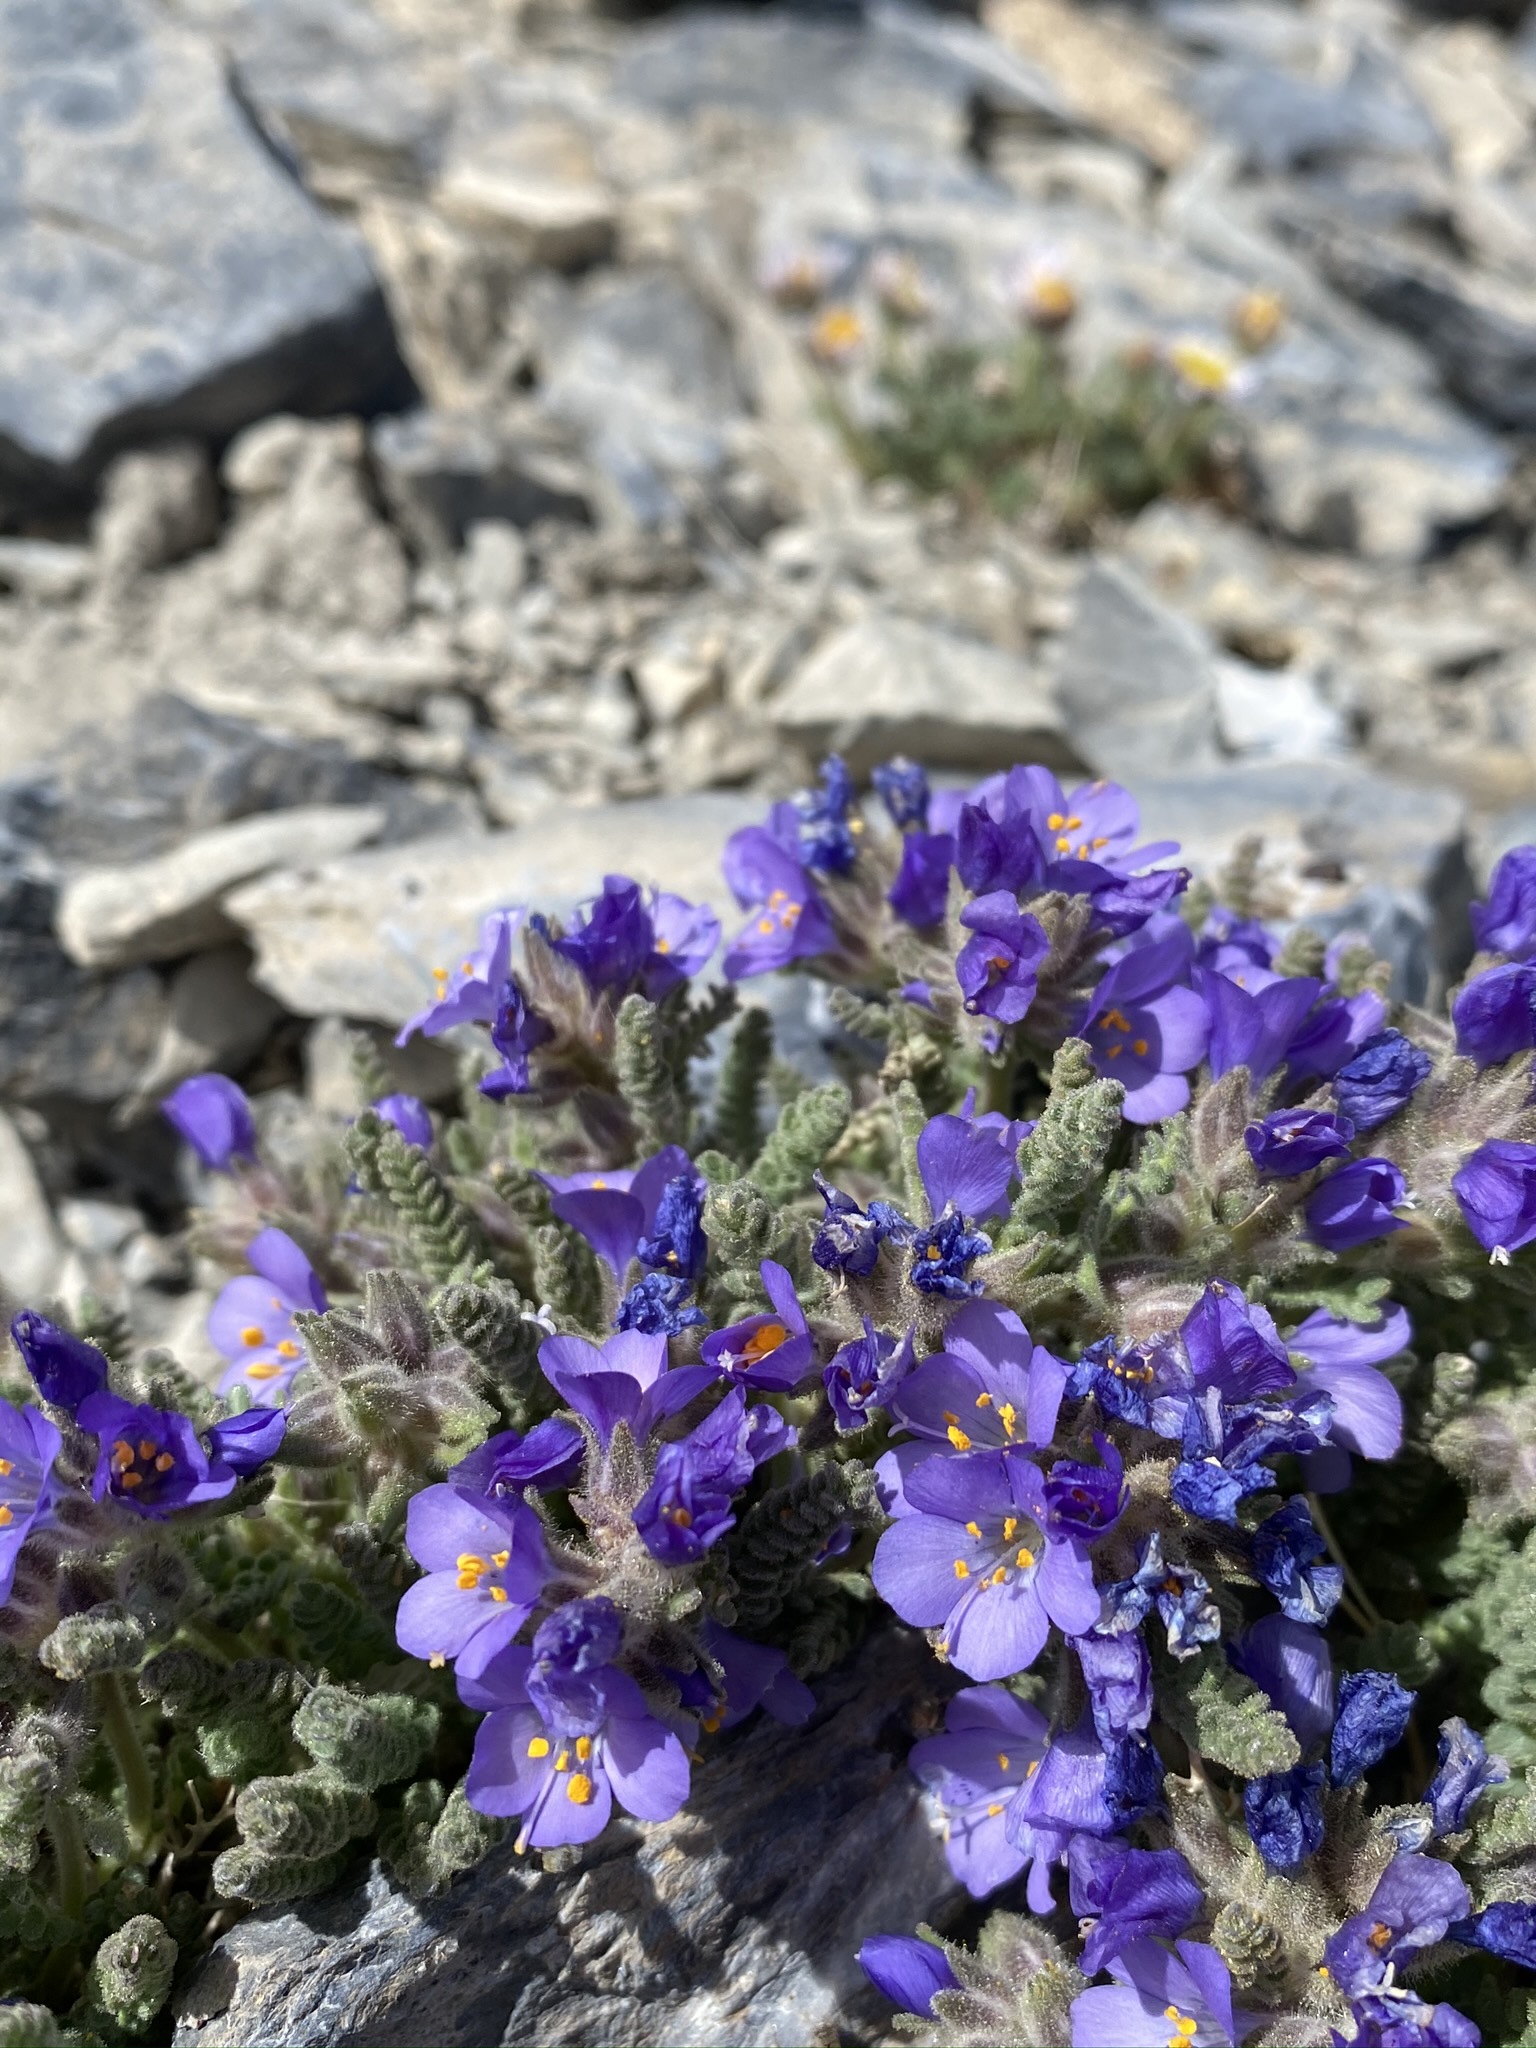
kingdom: Plantae
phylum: Tracheophyta
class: Magnoliopsida
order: Ericales
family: Polemoniaceae
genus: Polemonium
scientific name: Polemonium viscosum
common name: Skunk jacob's-ladder
